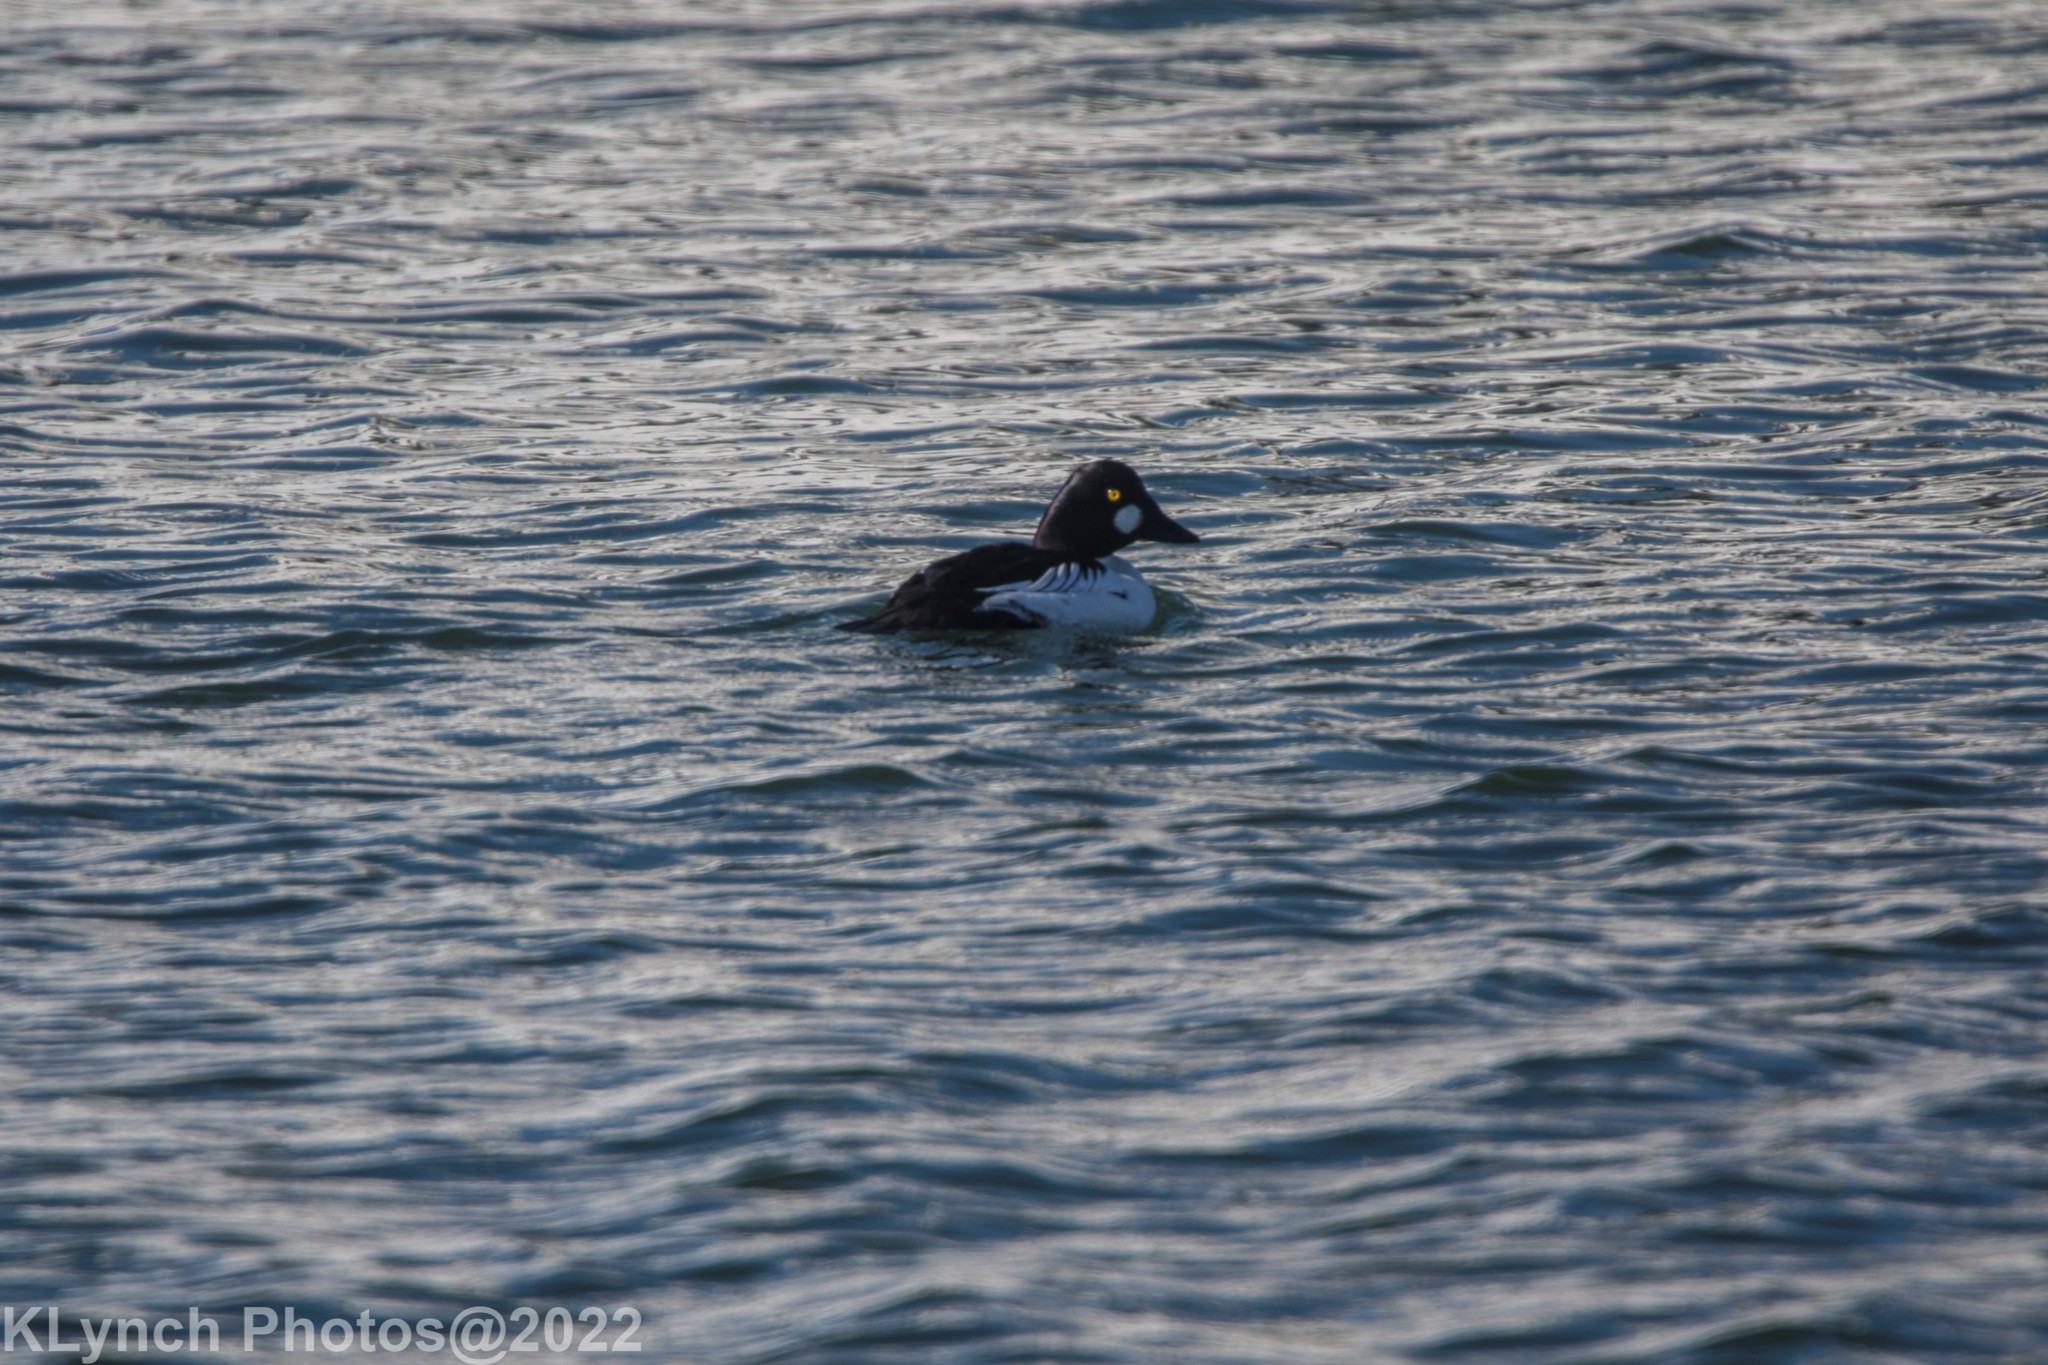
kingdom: Animalia
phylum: Chordata
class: Aves
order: Anseriformes
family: Anatidae
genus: Bucephala
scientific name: Bucephala clangula
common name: Common goldeneye
